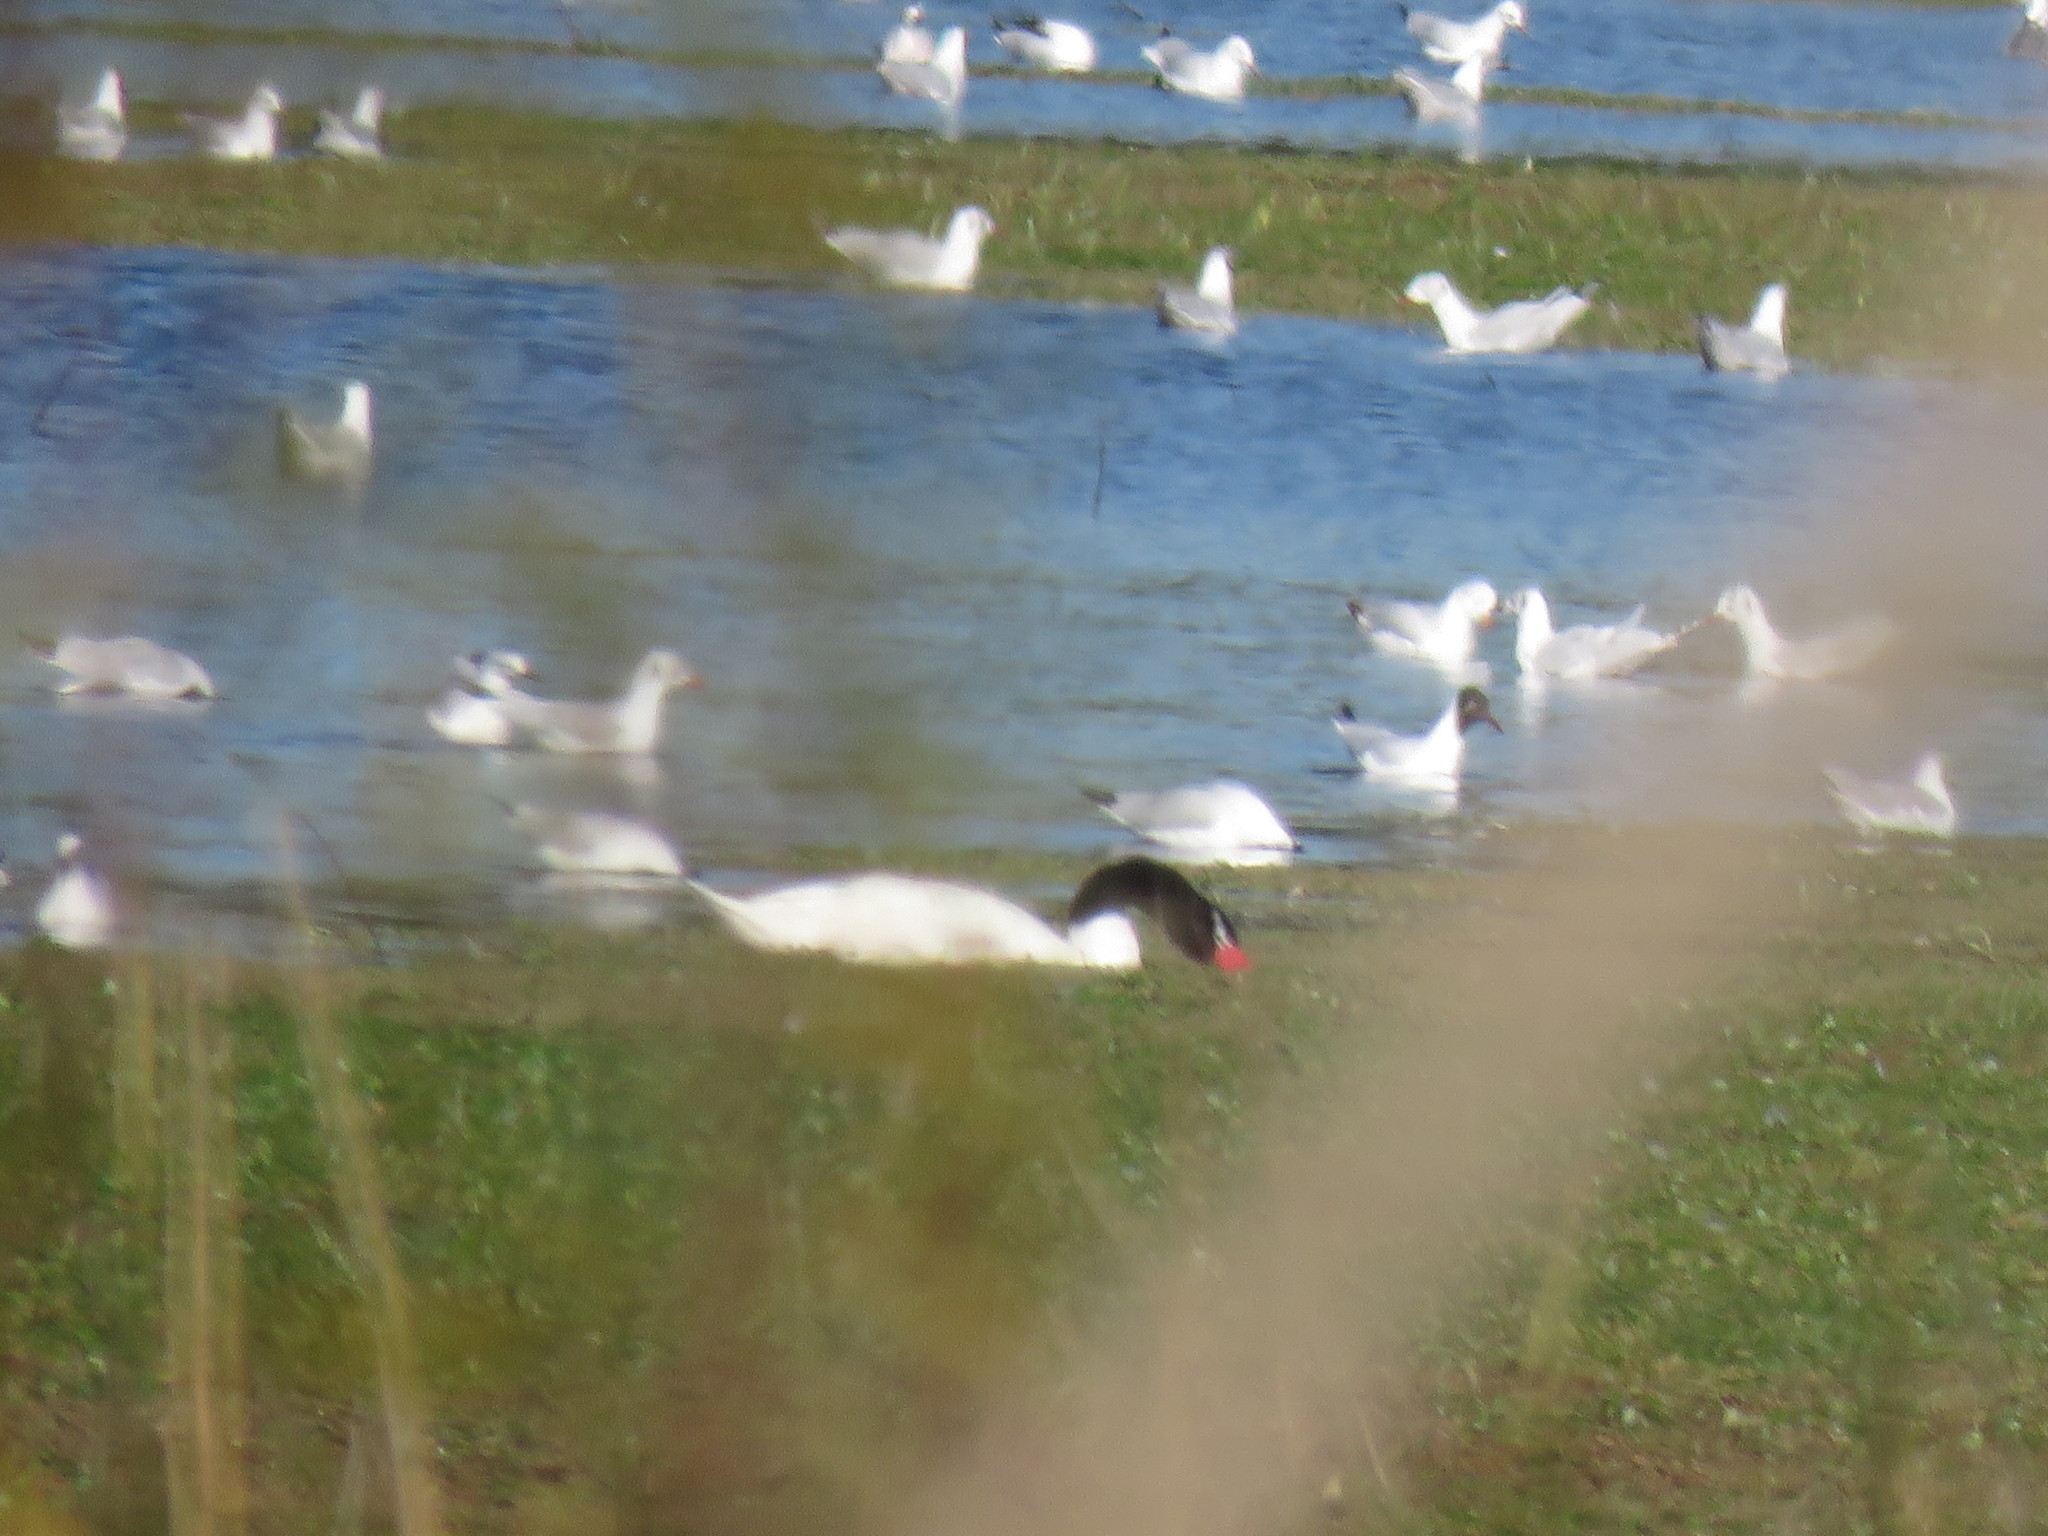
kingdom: Animalia
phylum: Chordata
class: Aves
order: Charadriiformes
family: Laridae
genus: Chroicocephalus
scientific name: Chroicocephalus maculipennis
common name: Brown-hooded gull
